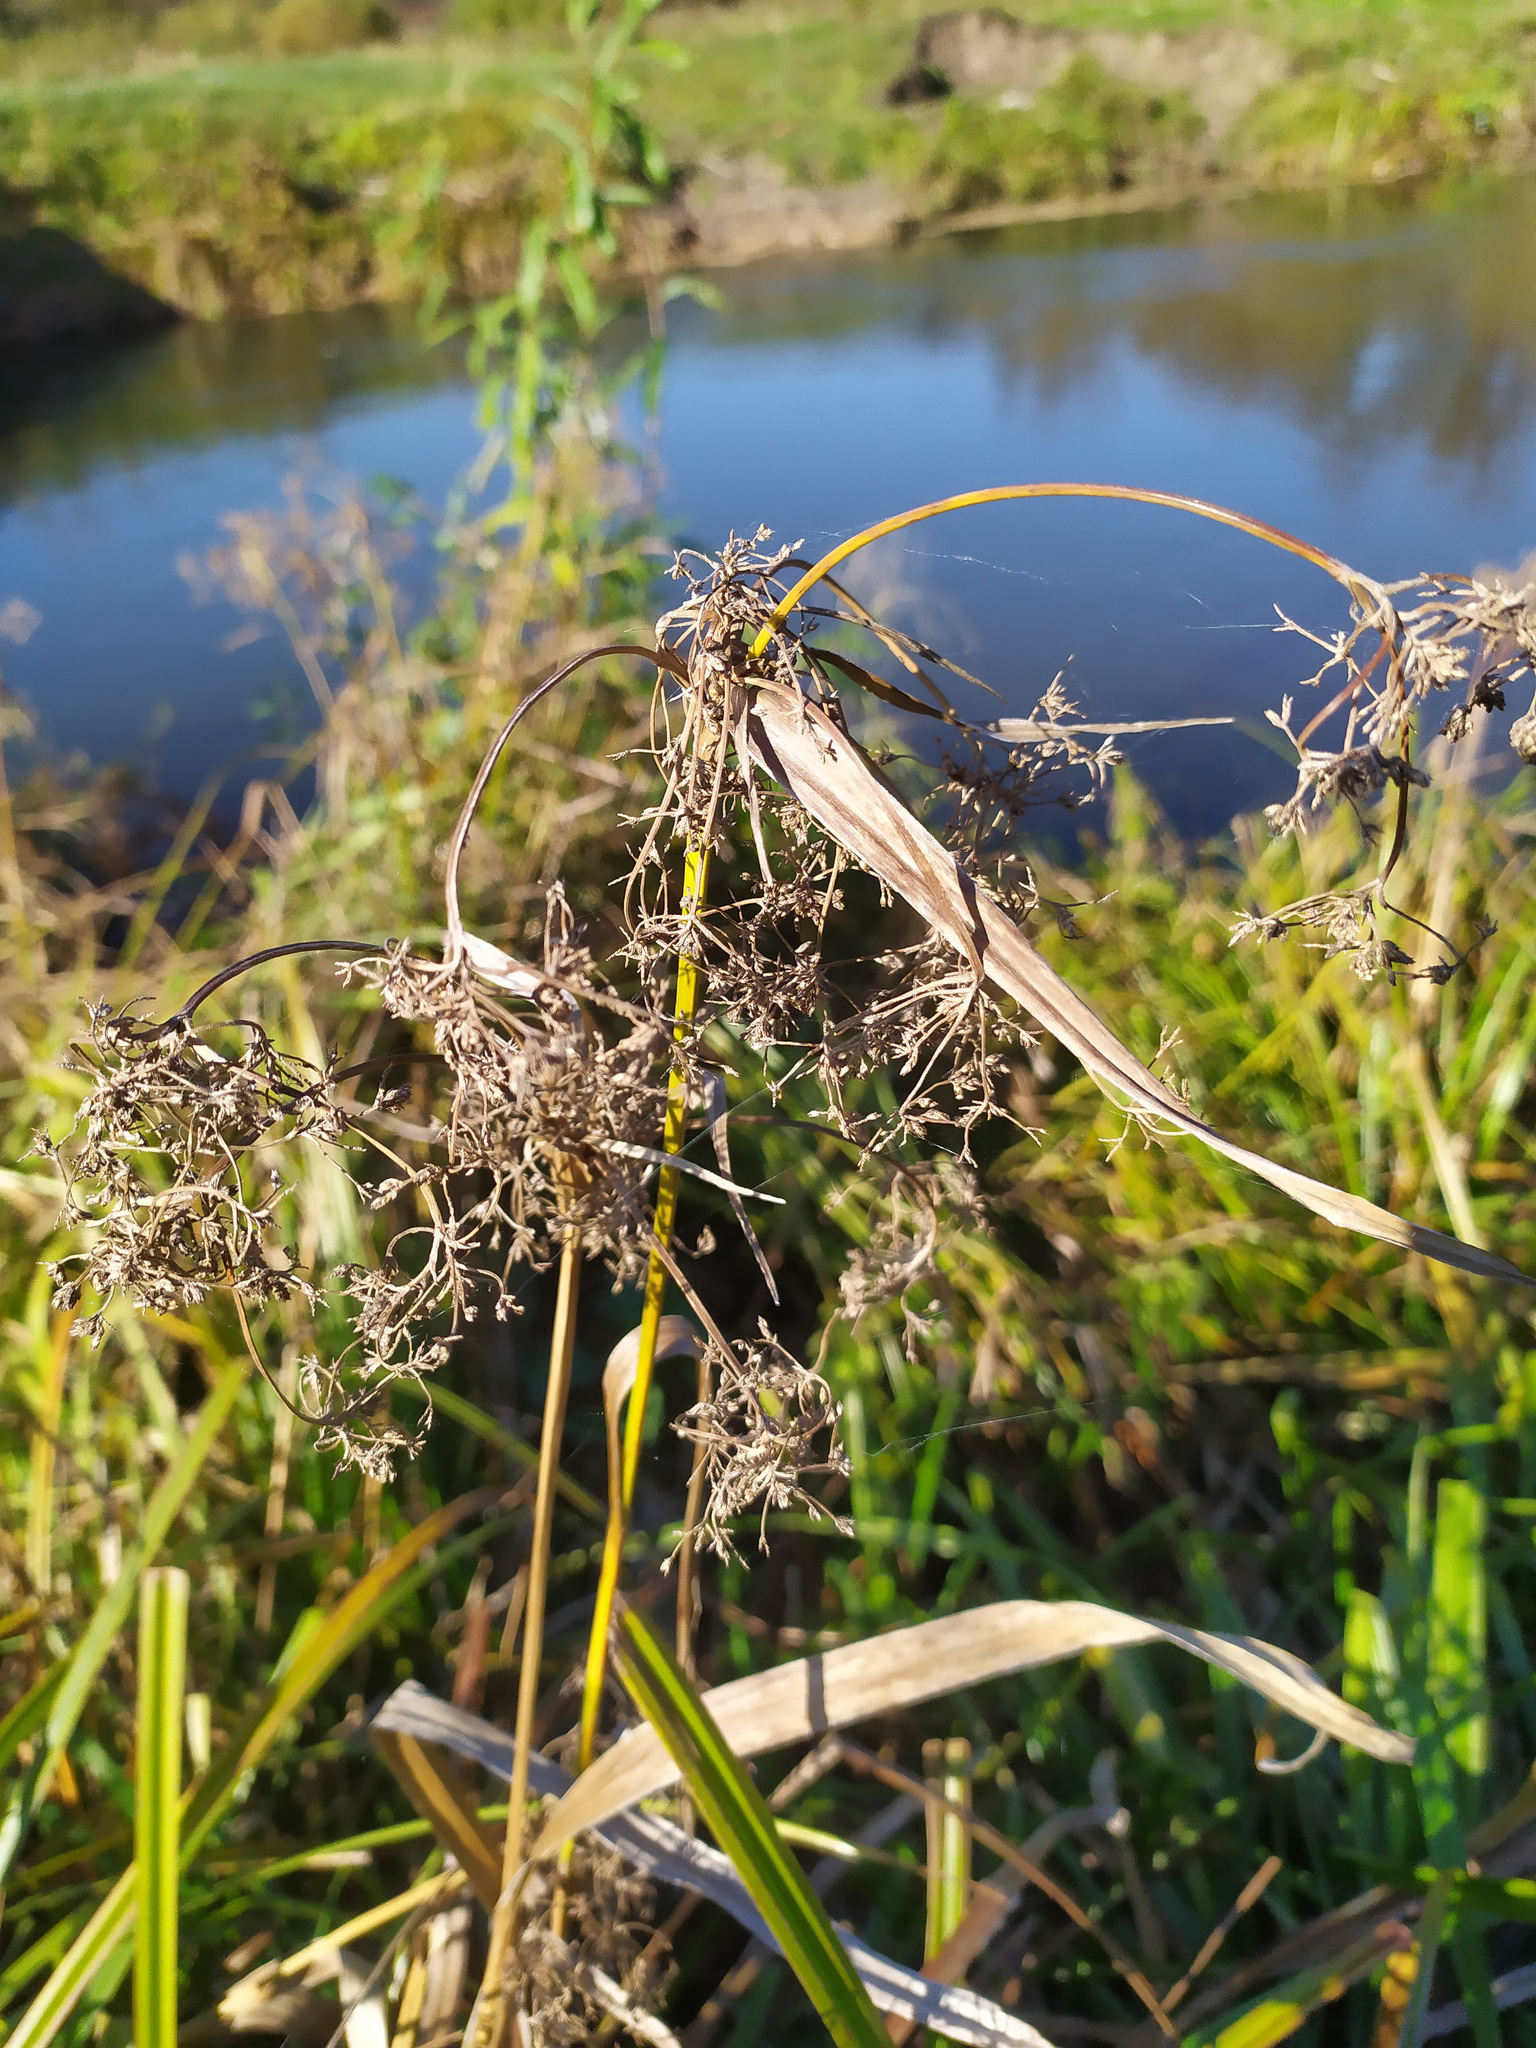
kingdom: Plantae
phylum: Tracheophyta
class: Liliopsida
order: Poales
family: Cyperaceae
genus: Scirpus
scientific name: Scirpus sylvaticus
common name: Wood club-rush
